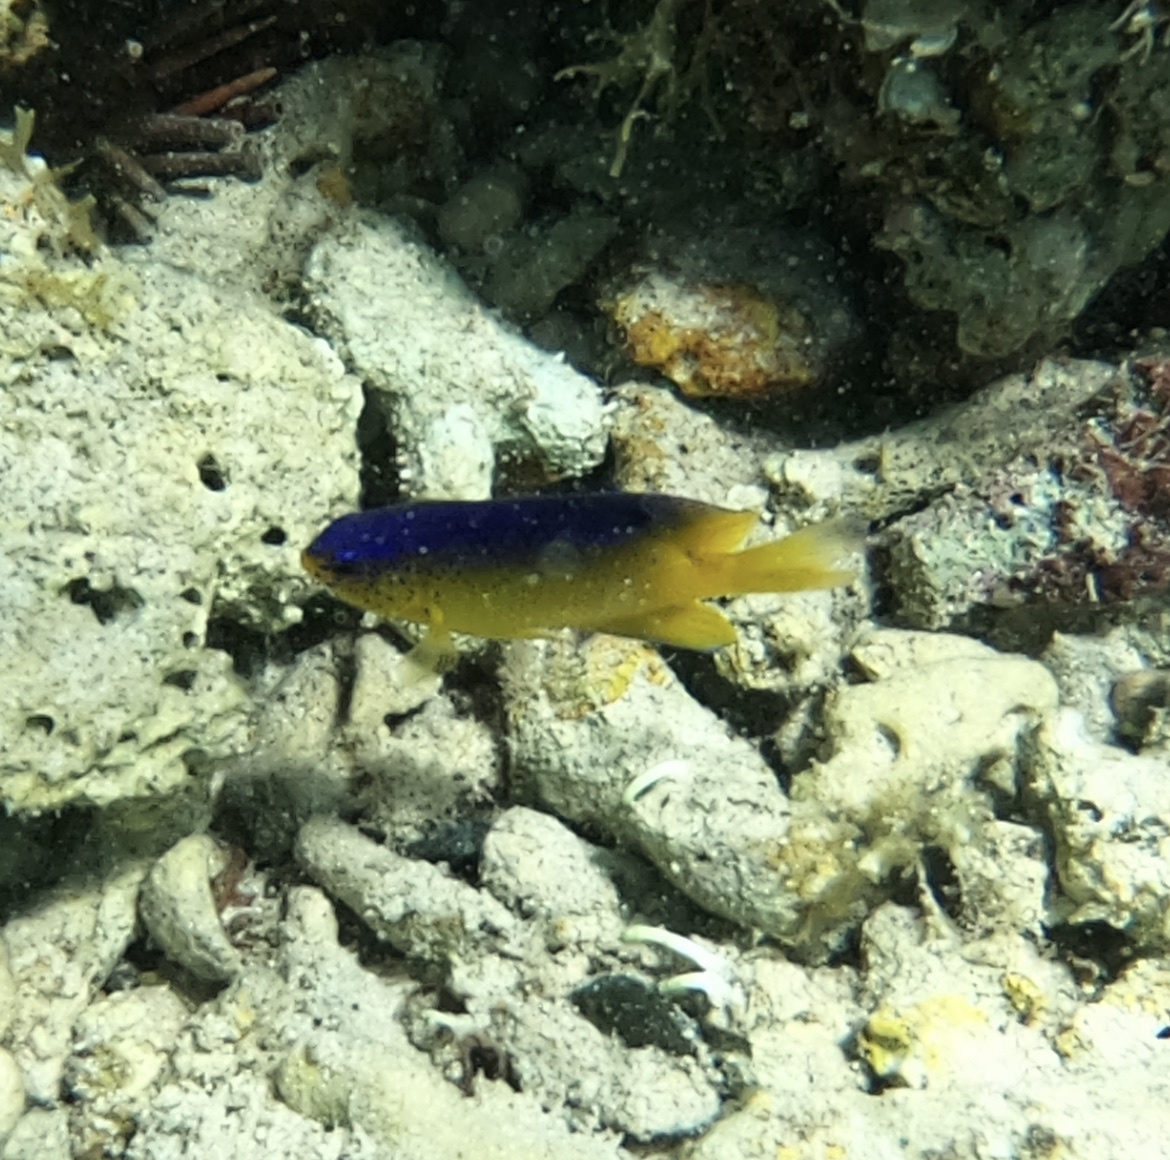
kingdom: Animalia
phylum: Chordata
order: Perciformes
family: Pomacentridae
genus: Stegastes
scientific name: Stegastes leucostictus
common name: Beaugregory
